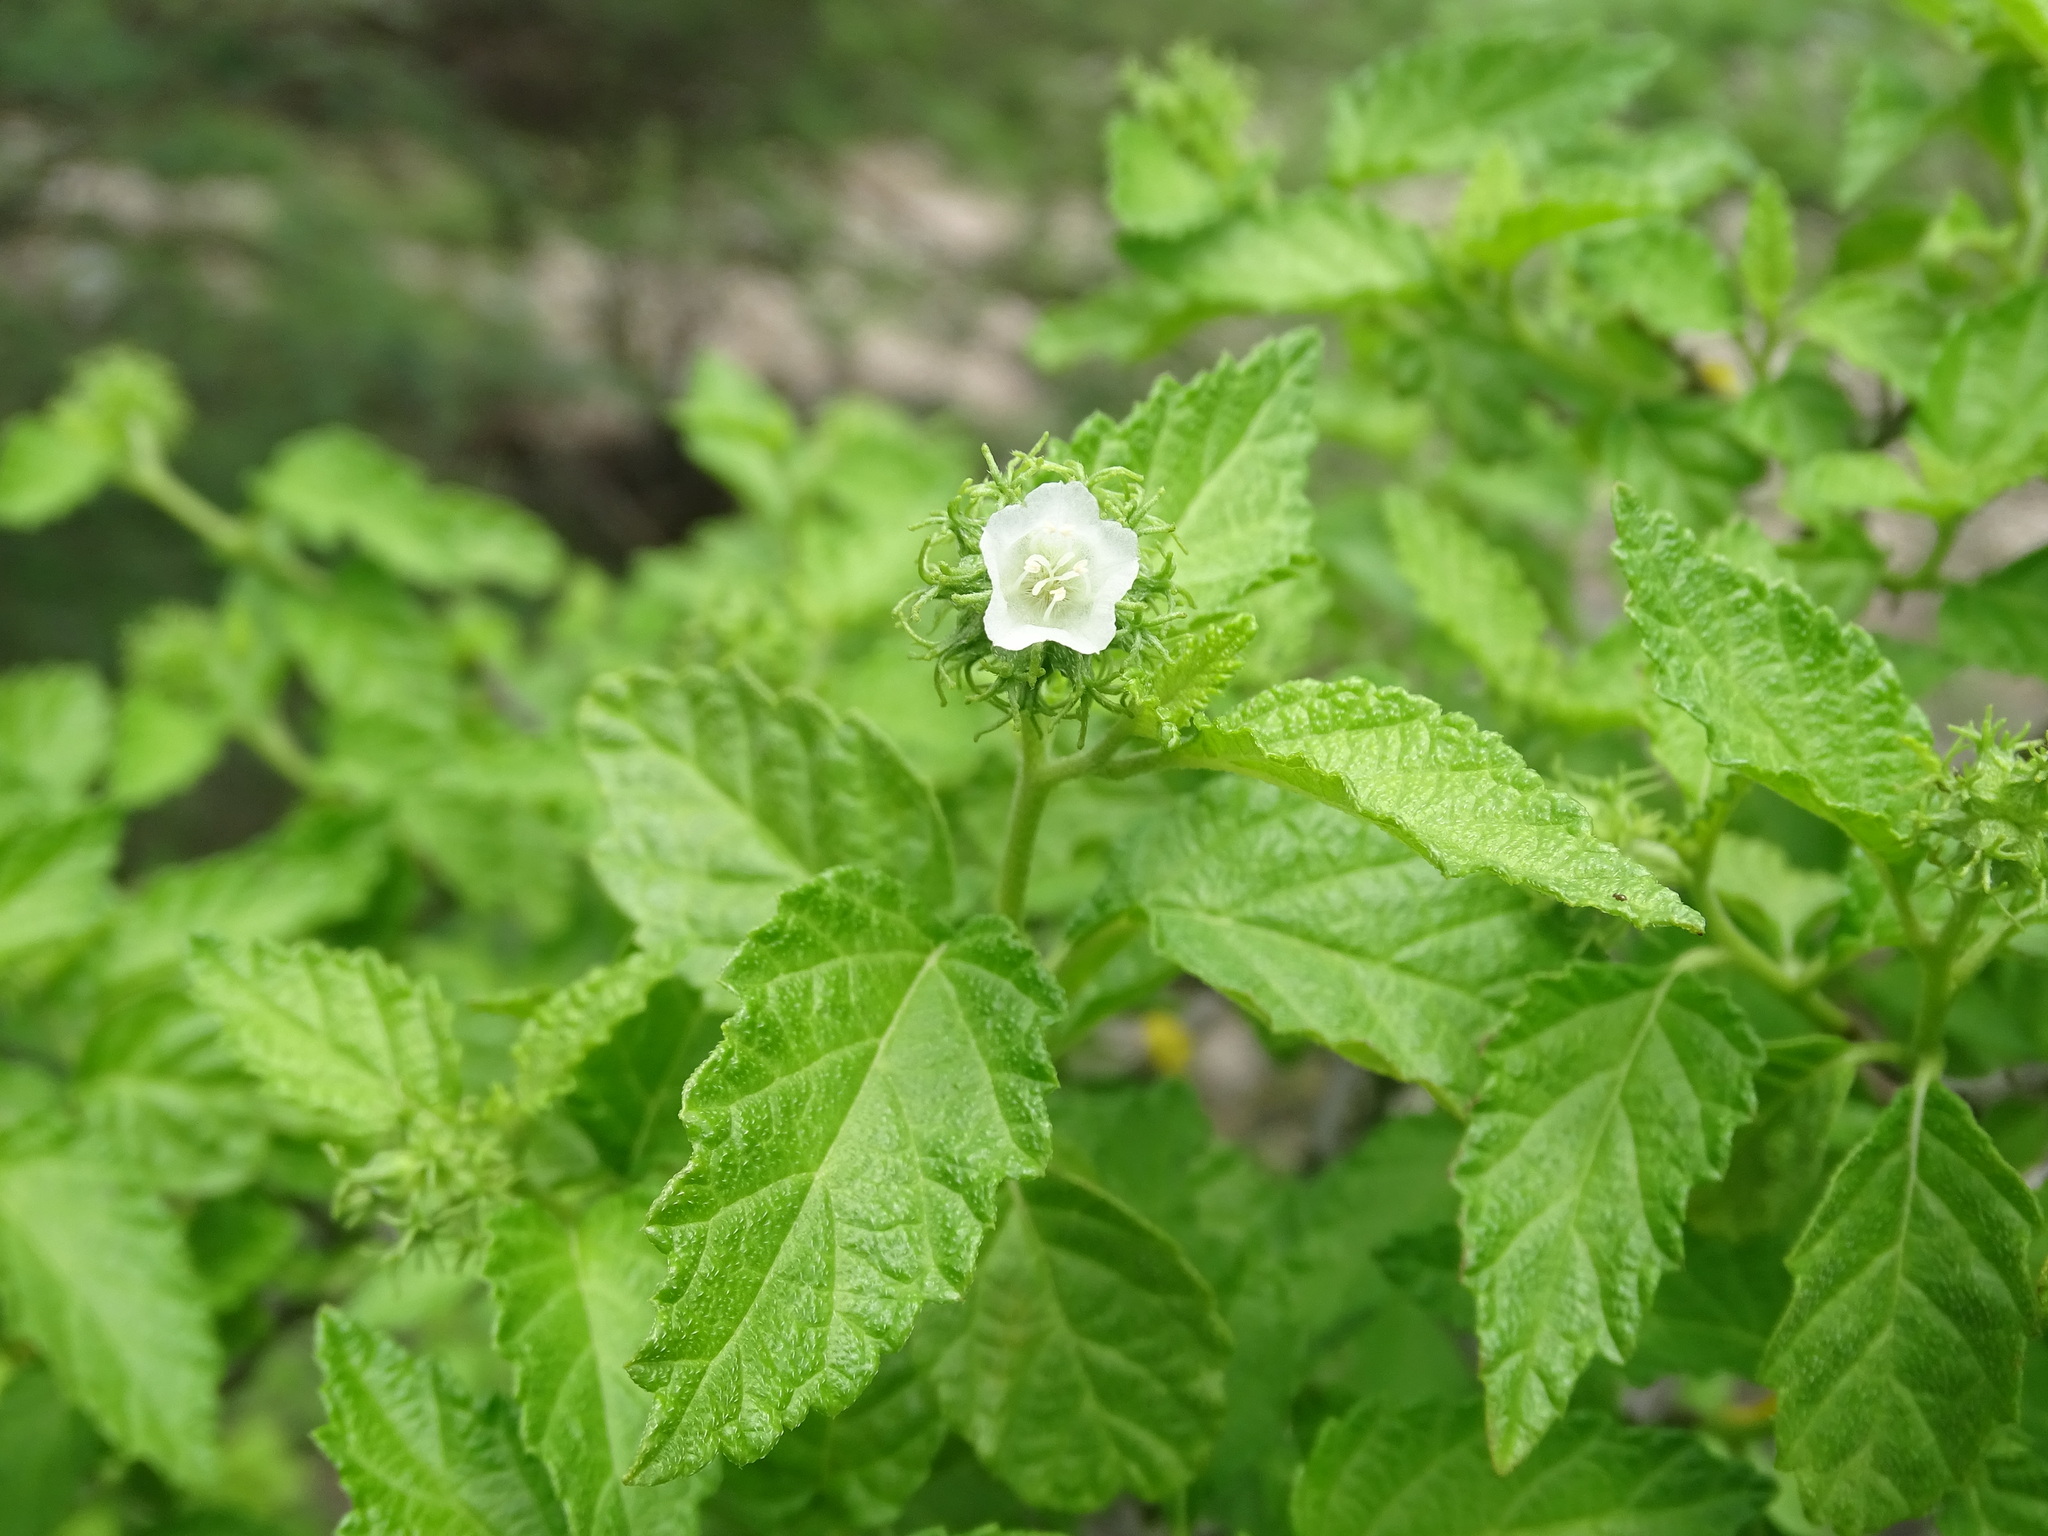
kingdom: Plantae
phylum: Tracheophyta
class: Magnoliopsida
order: Boraginales
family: Cordiaceae
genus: Varronia
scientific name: Varronia bullata
